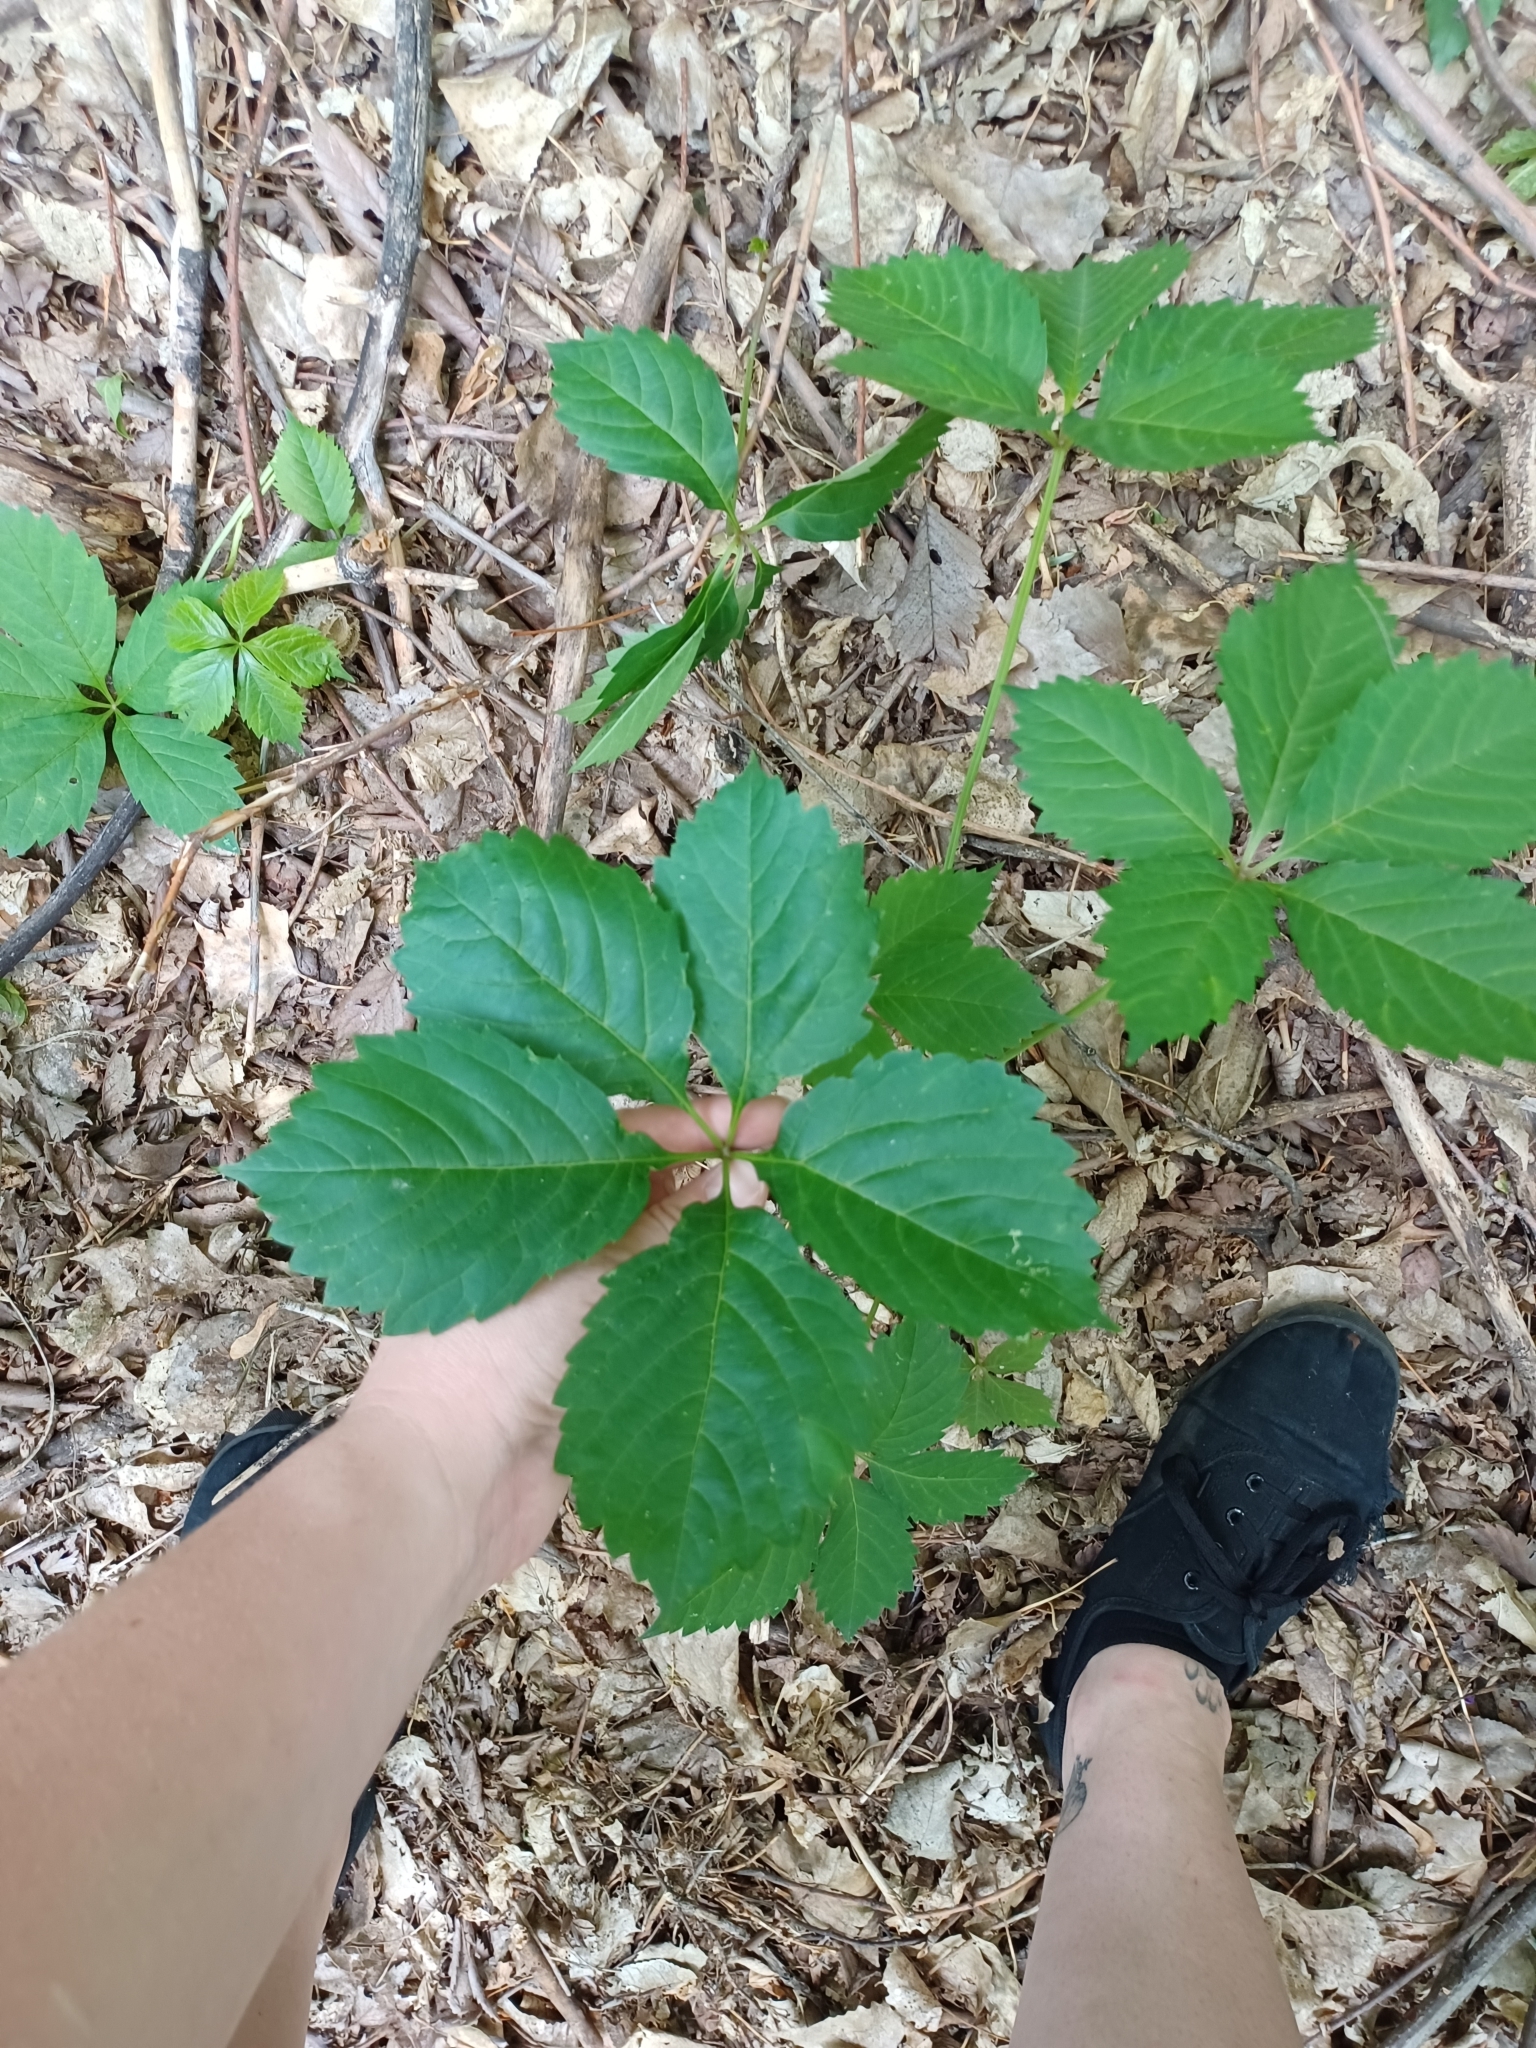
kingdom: Plantae
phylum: Tracheophyta
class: Magnoliopsida
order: Vitales
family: Vitaceae
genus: Parthenocissus
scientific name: Parthenocissus quinquefolia
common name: Virginia-creeper
